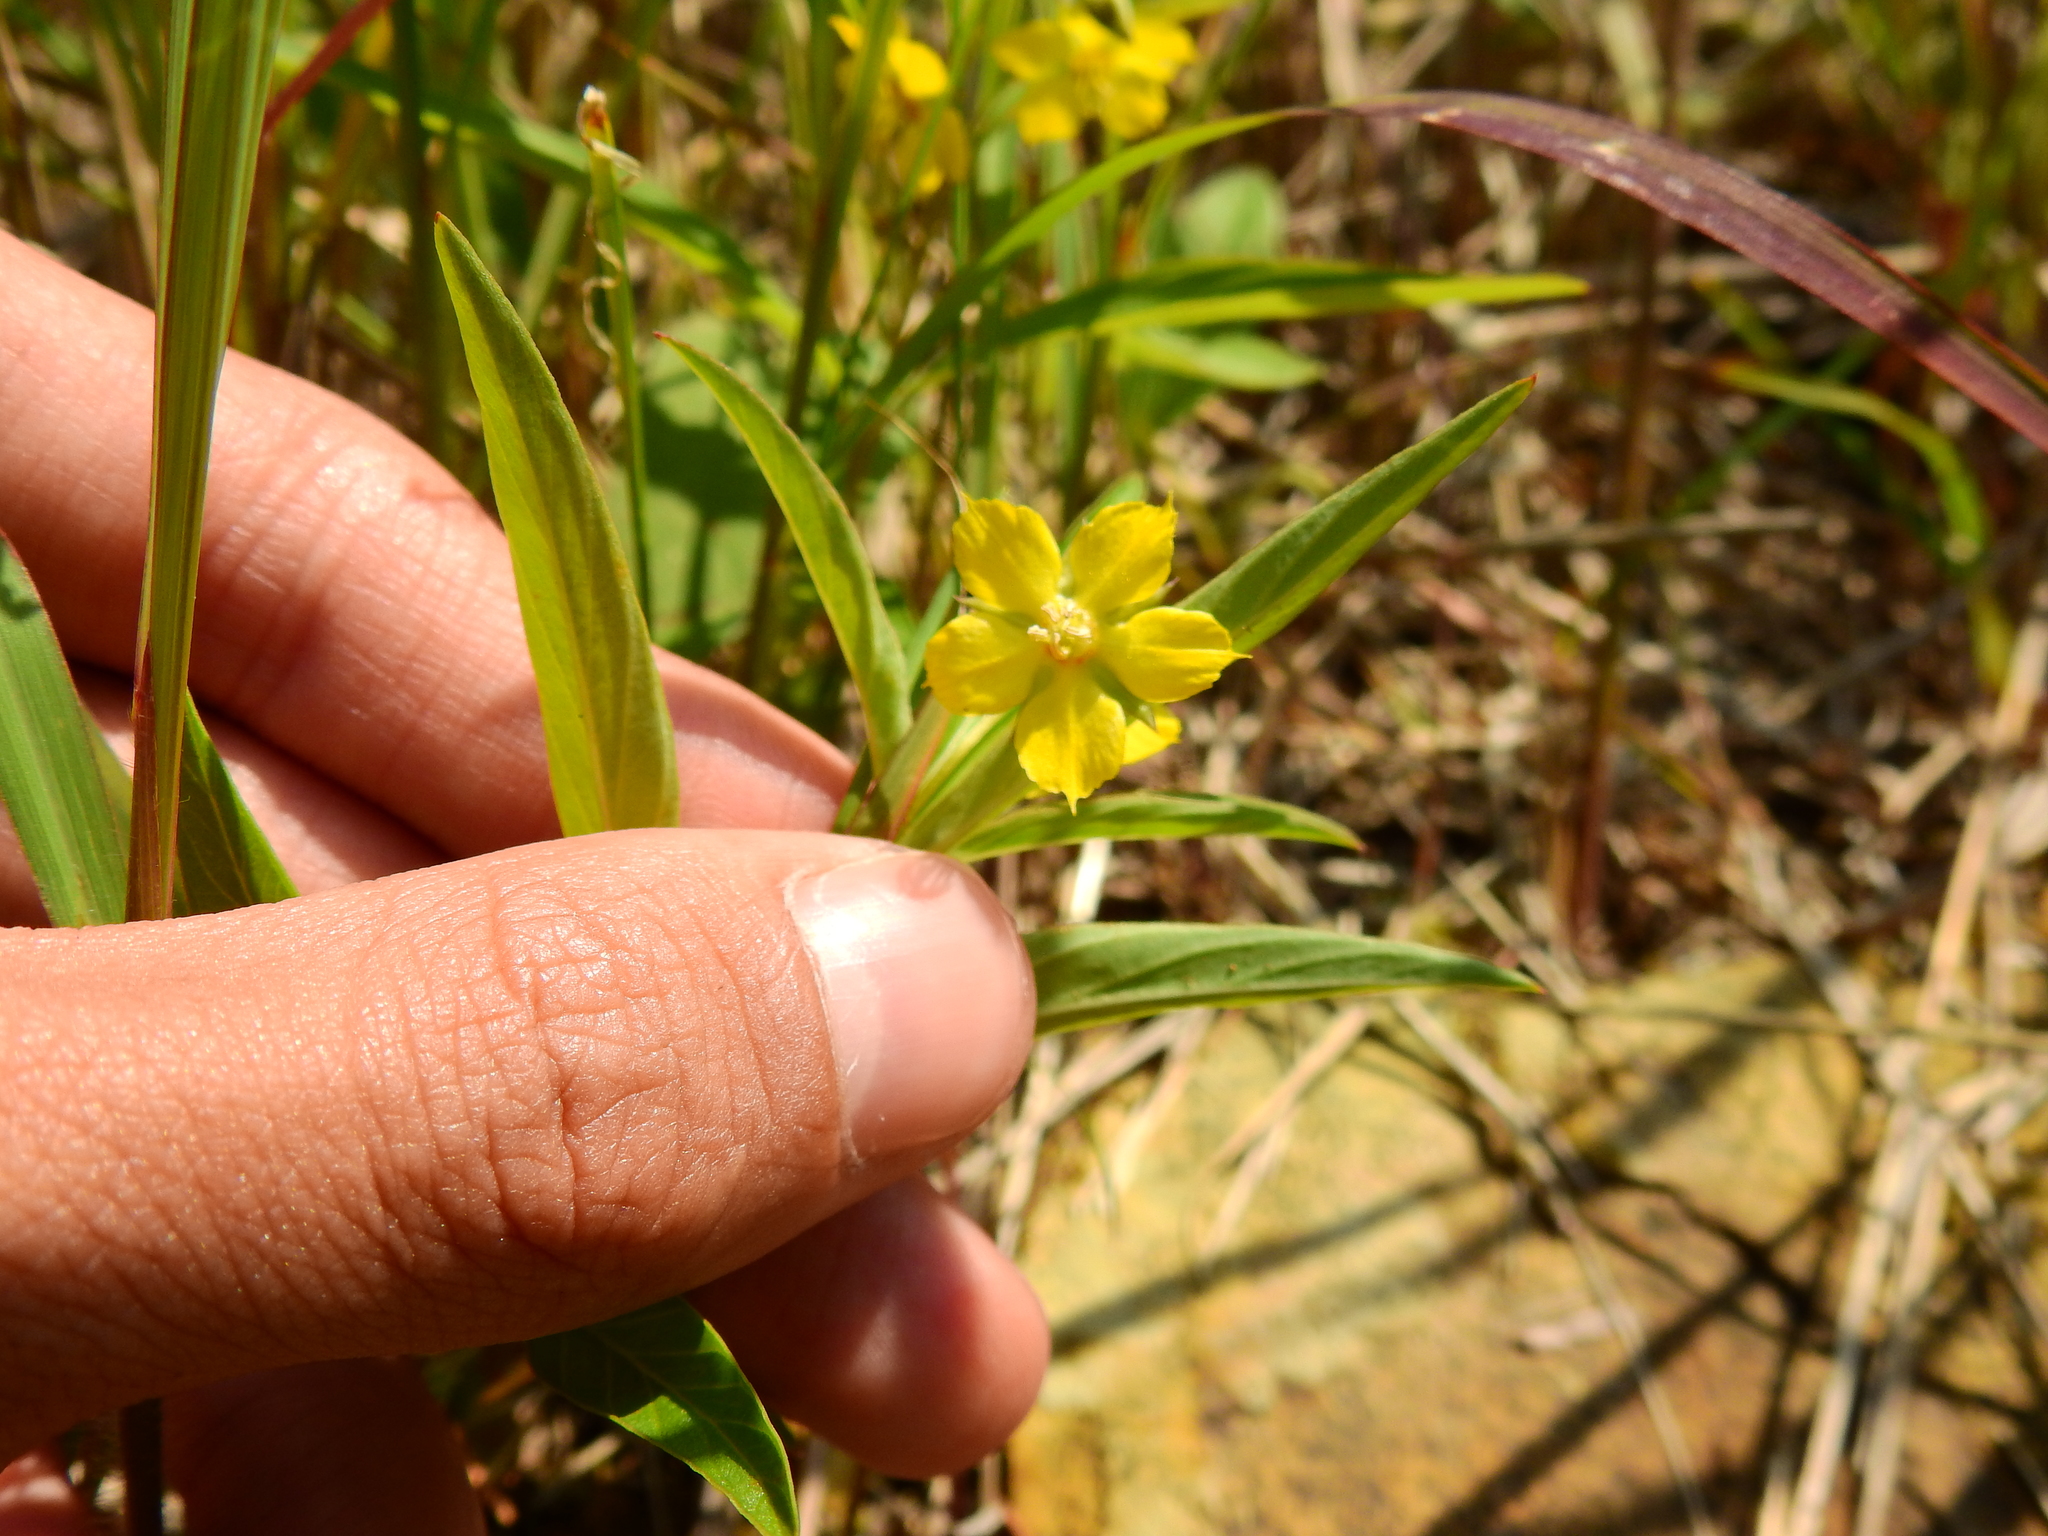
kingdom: Plantae
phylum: Tracheophyta
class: Magnoliopsida
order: Ericales
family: Primulaceae
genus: Lysimachia
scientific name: Lysimachia lanceolata
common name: Lance-leaved loosestrife
